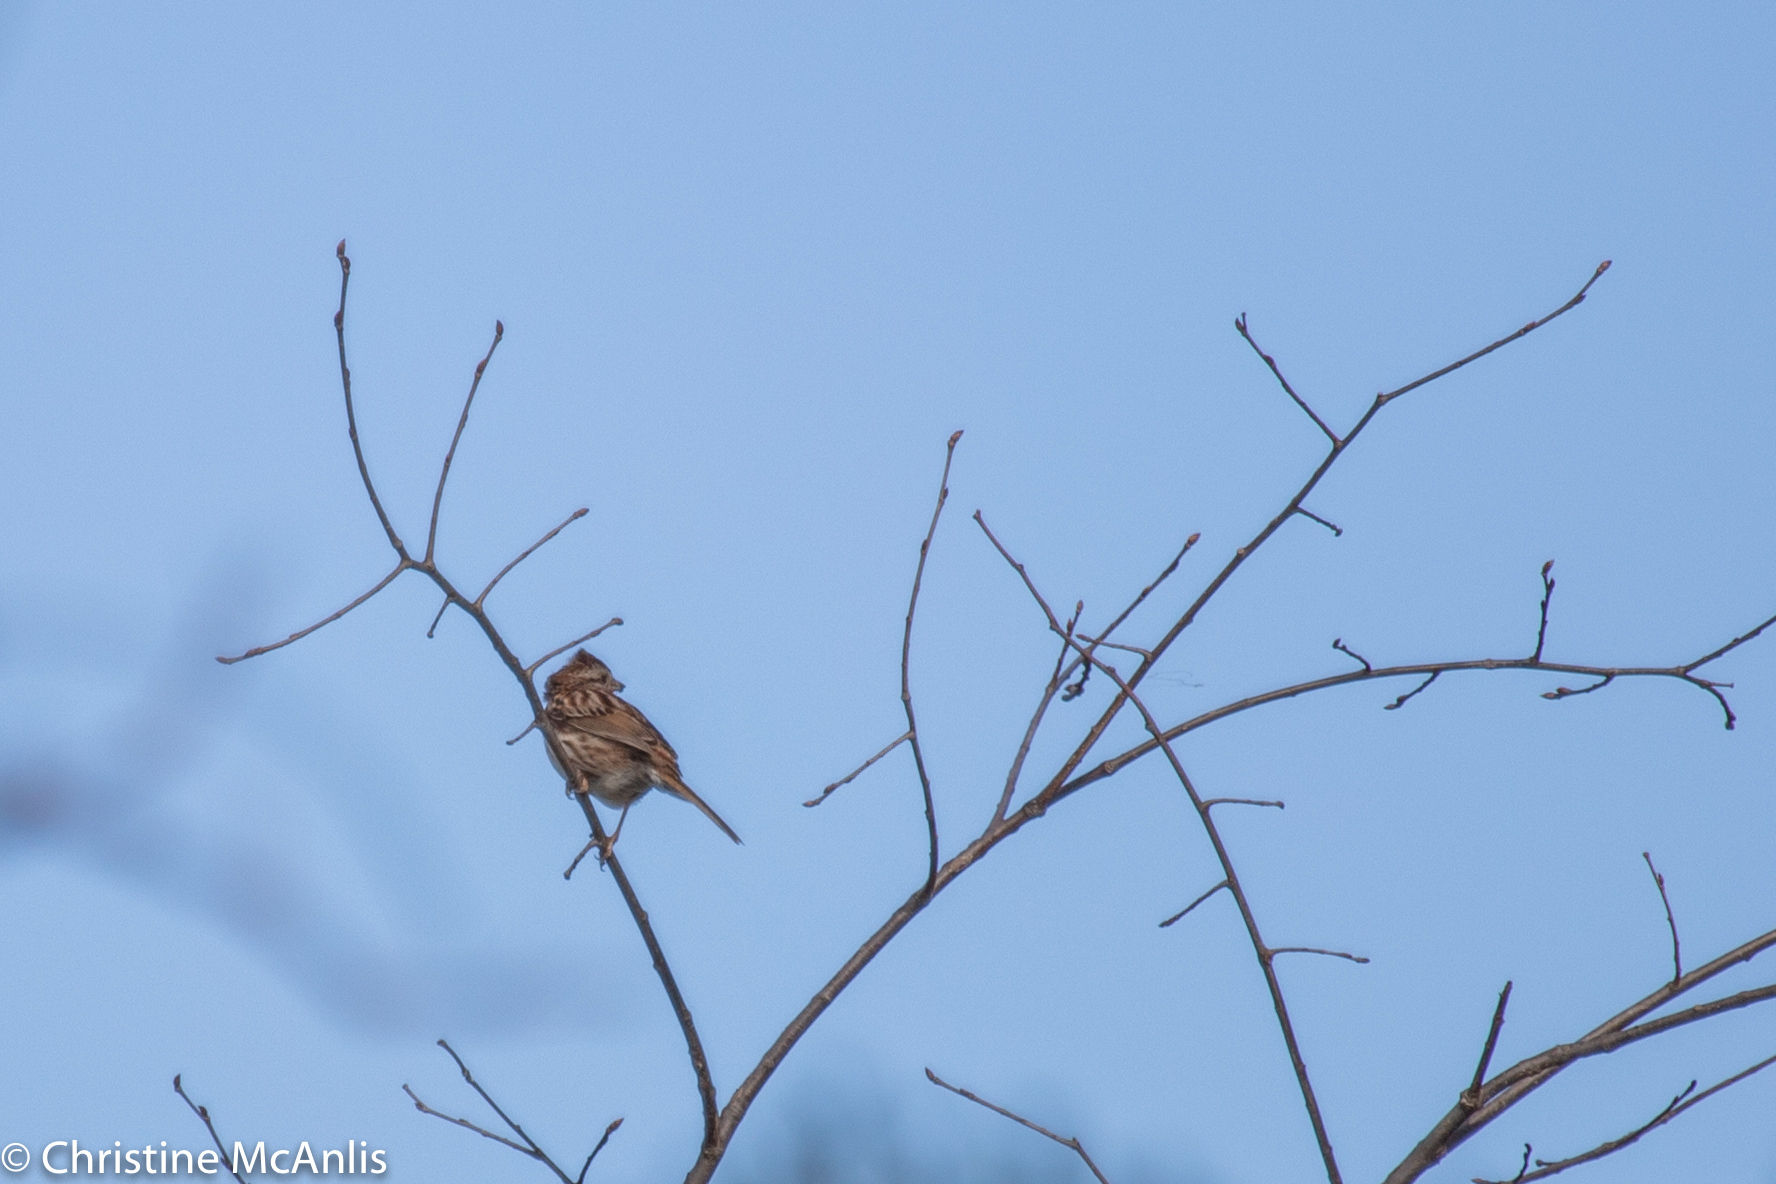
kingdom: Animalia
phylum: Chordata
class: Aves
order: Passeriformes
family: Passerellidae
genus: Melospiza
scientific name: Melospiza melodia
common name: Song sparrow
